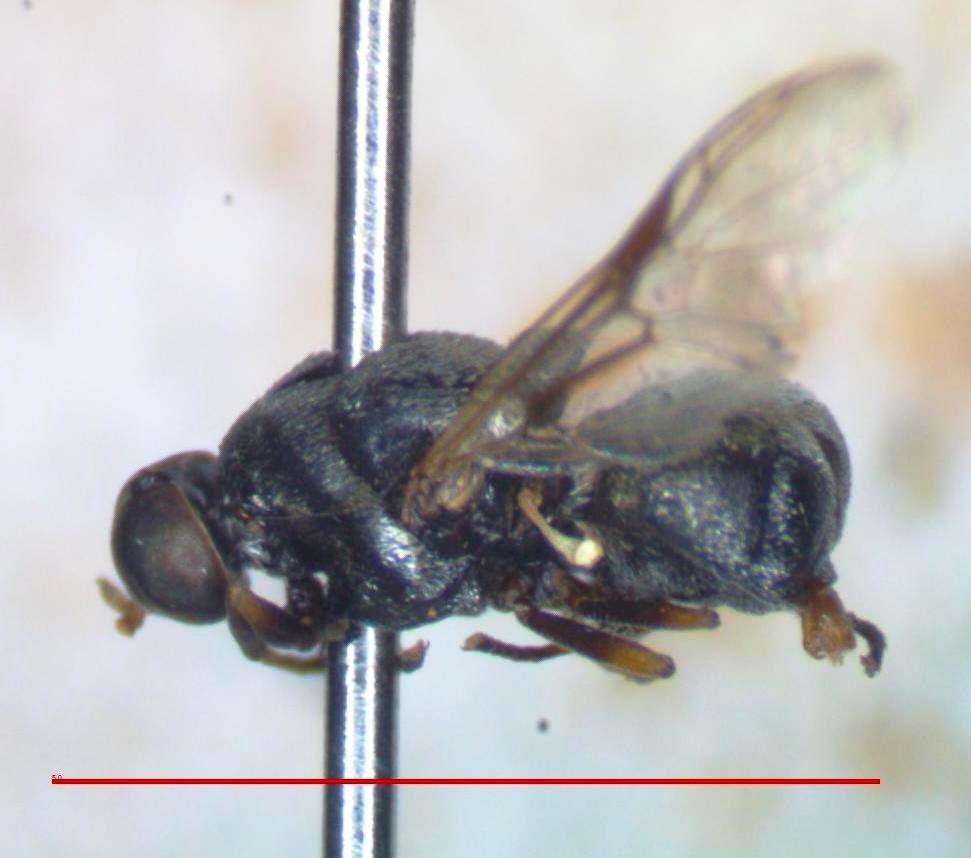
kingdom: Animalia
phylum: Arthropoda
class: Insecta
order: Diptera
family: Stratiomyidae
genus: Artemita
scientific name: Artemita aurata
